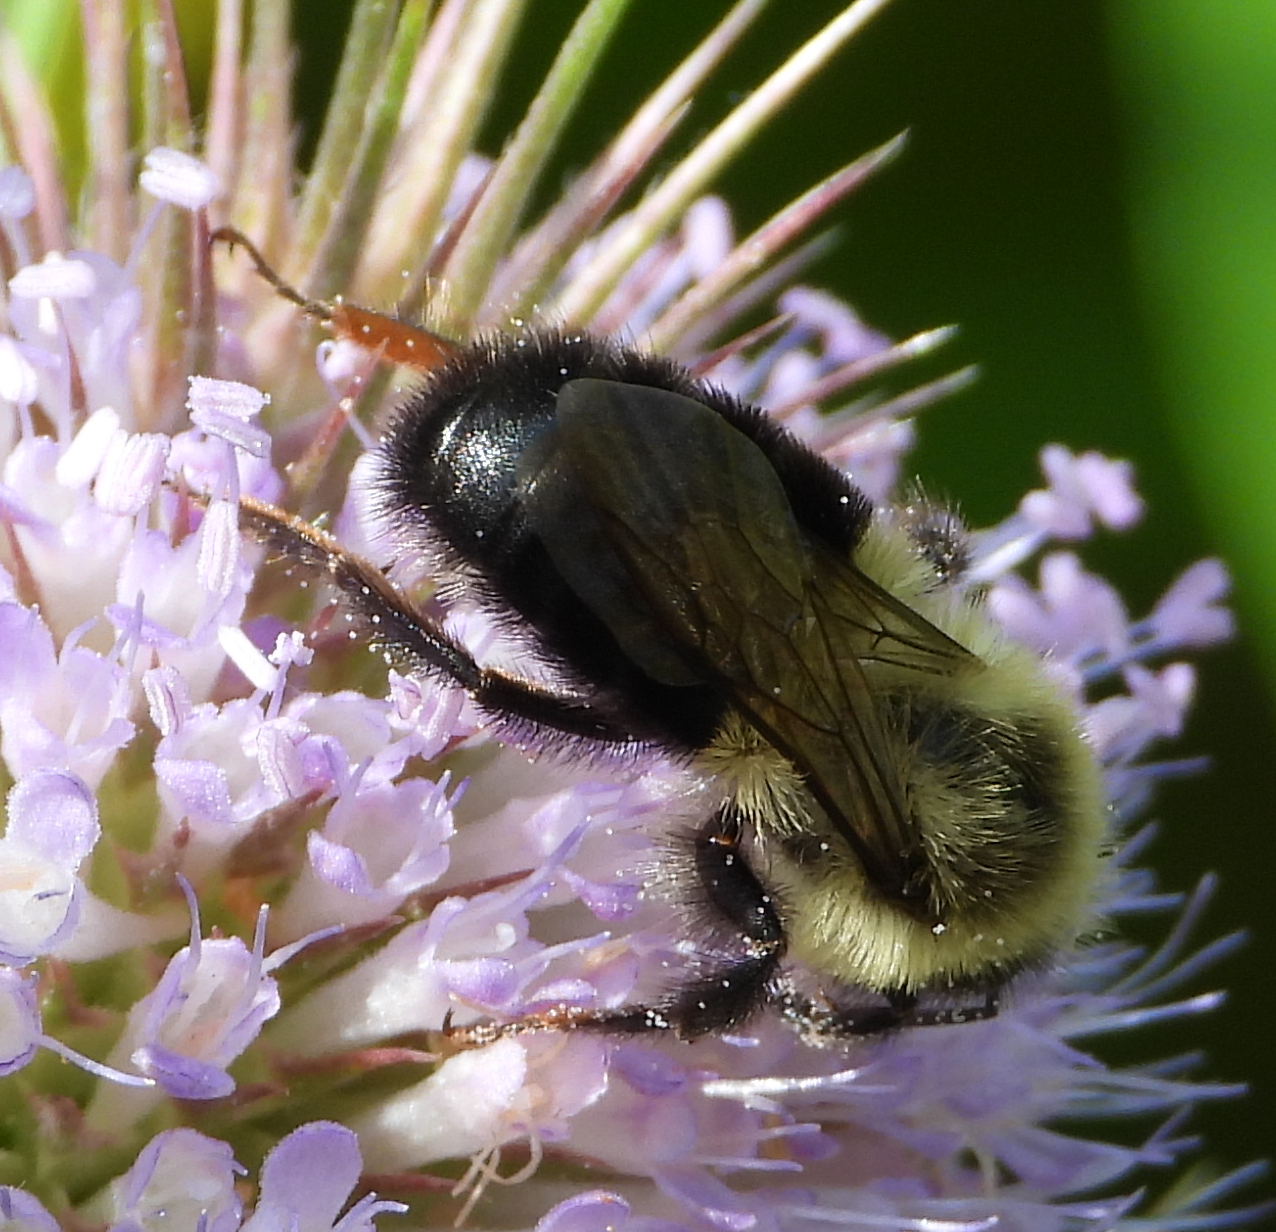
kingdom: Animalia
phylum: Arthropoda
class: Insecta
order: Hymenoptera
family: Apidae
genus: Bombus
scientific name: Bombus impatiens
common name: Common eastern bumble bee
